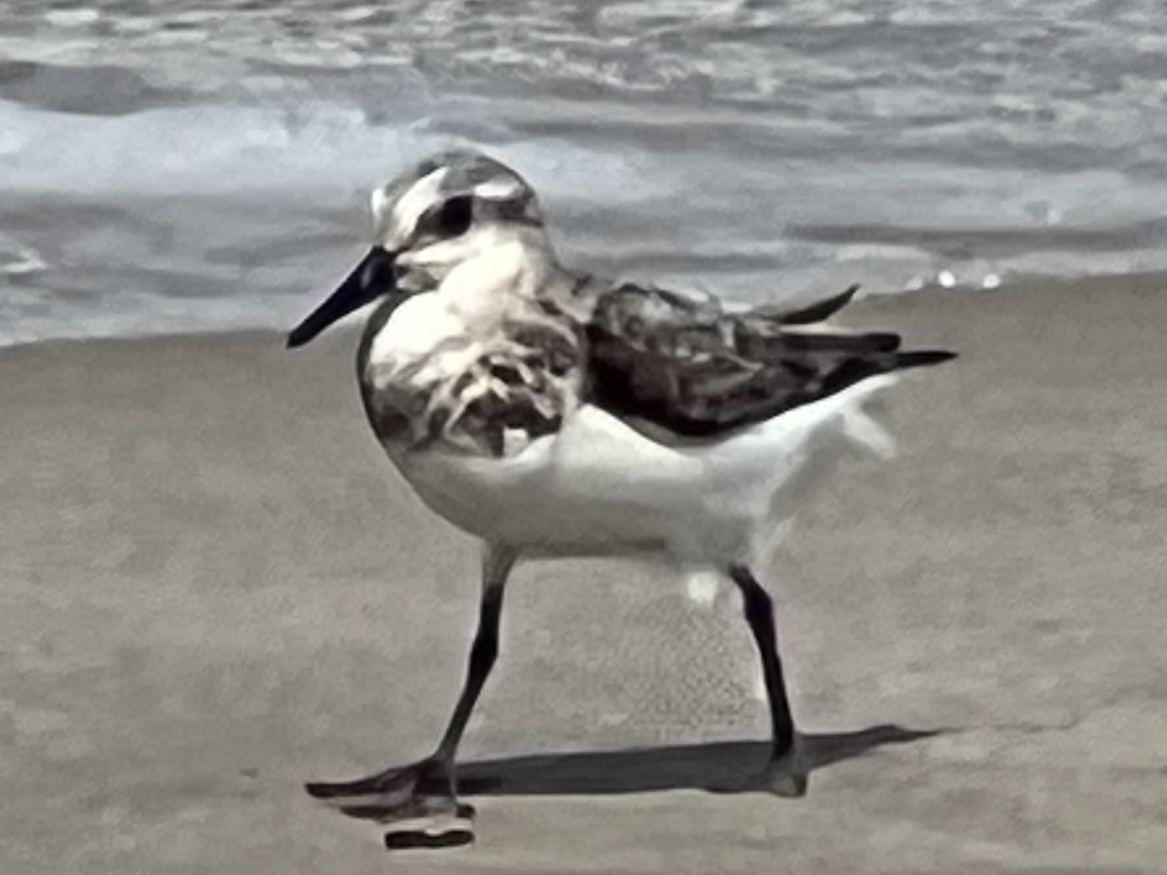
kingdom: Animalia
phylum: Chordata
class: Aves
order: Charadriiformes
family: Scolopacidae
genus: Calidris
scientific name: Calidris alba
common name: Sanderling
